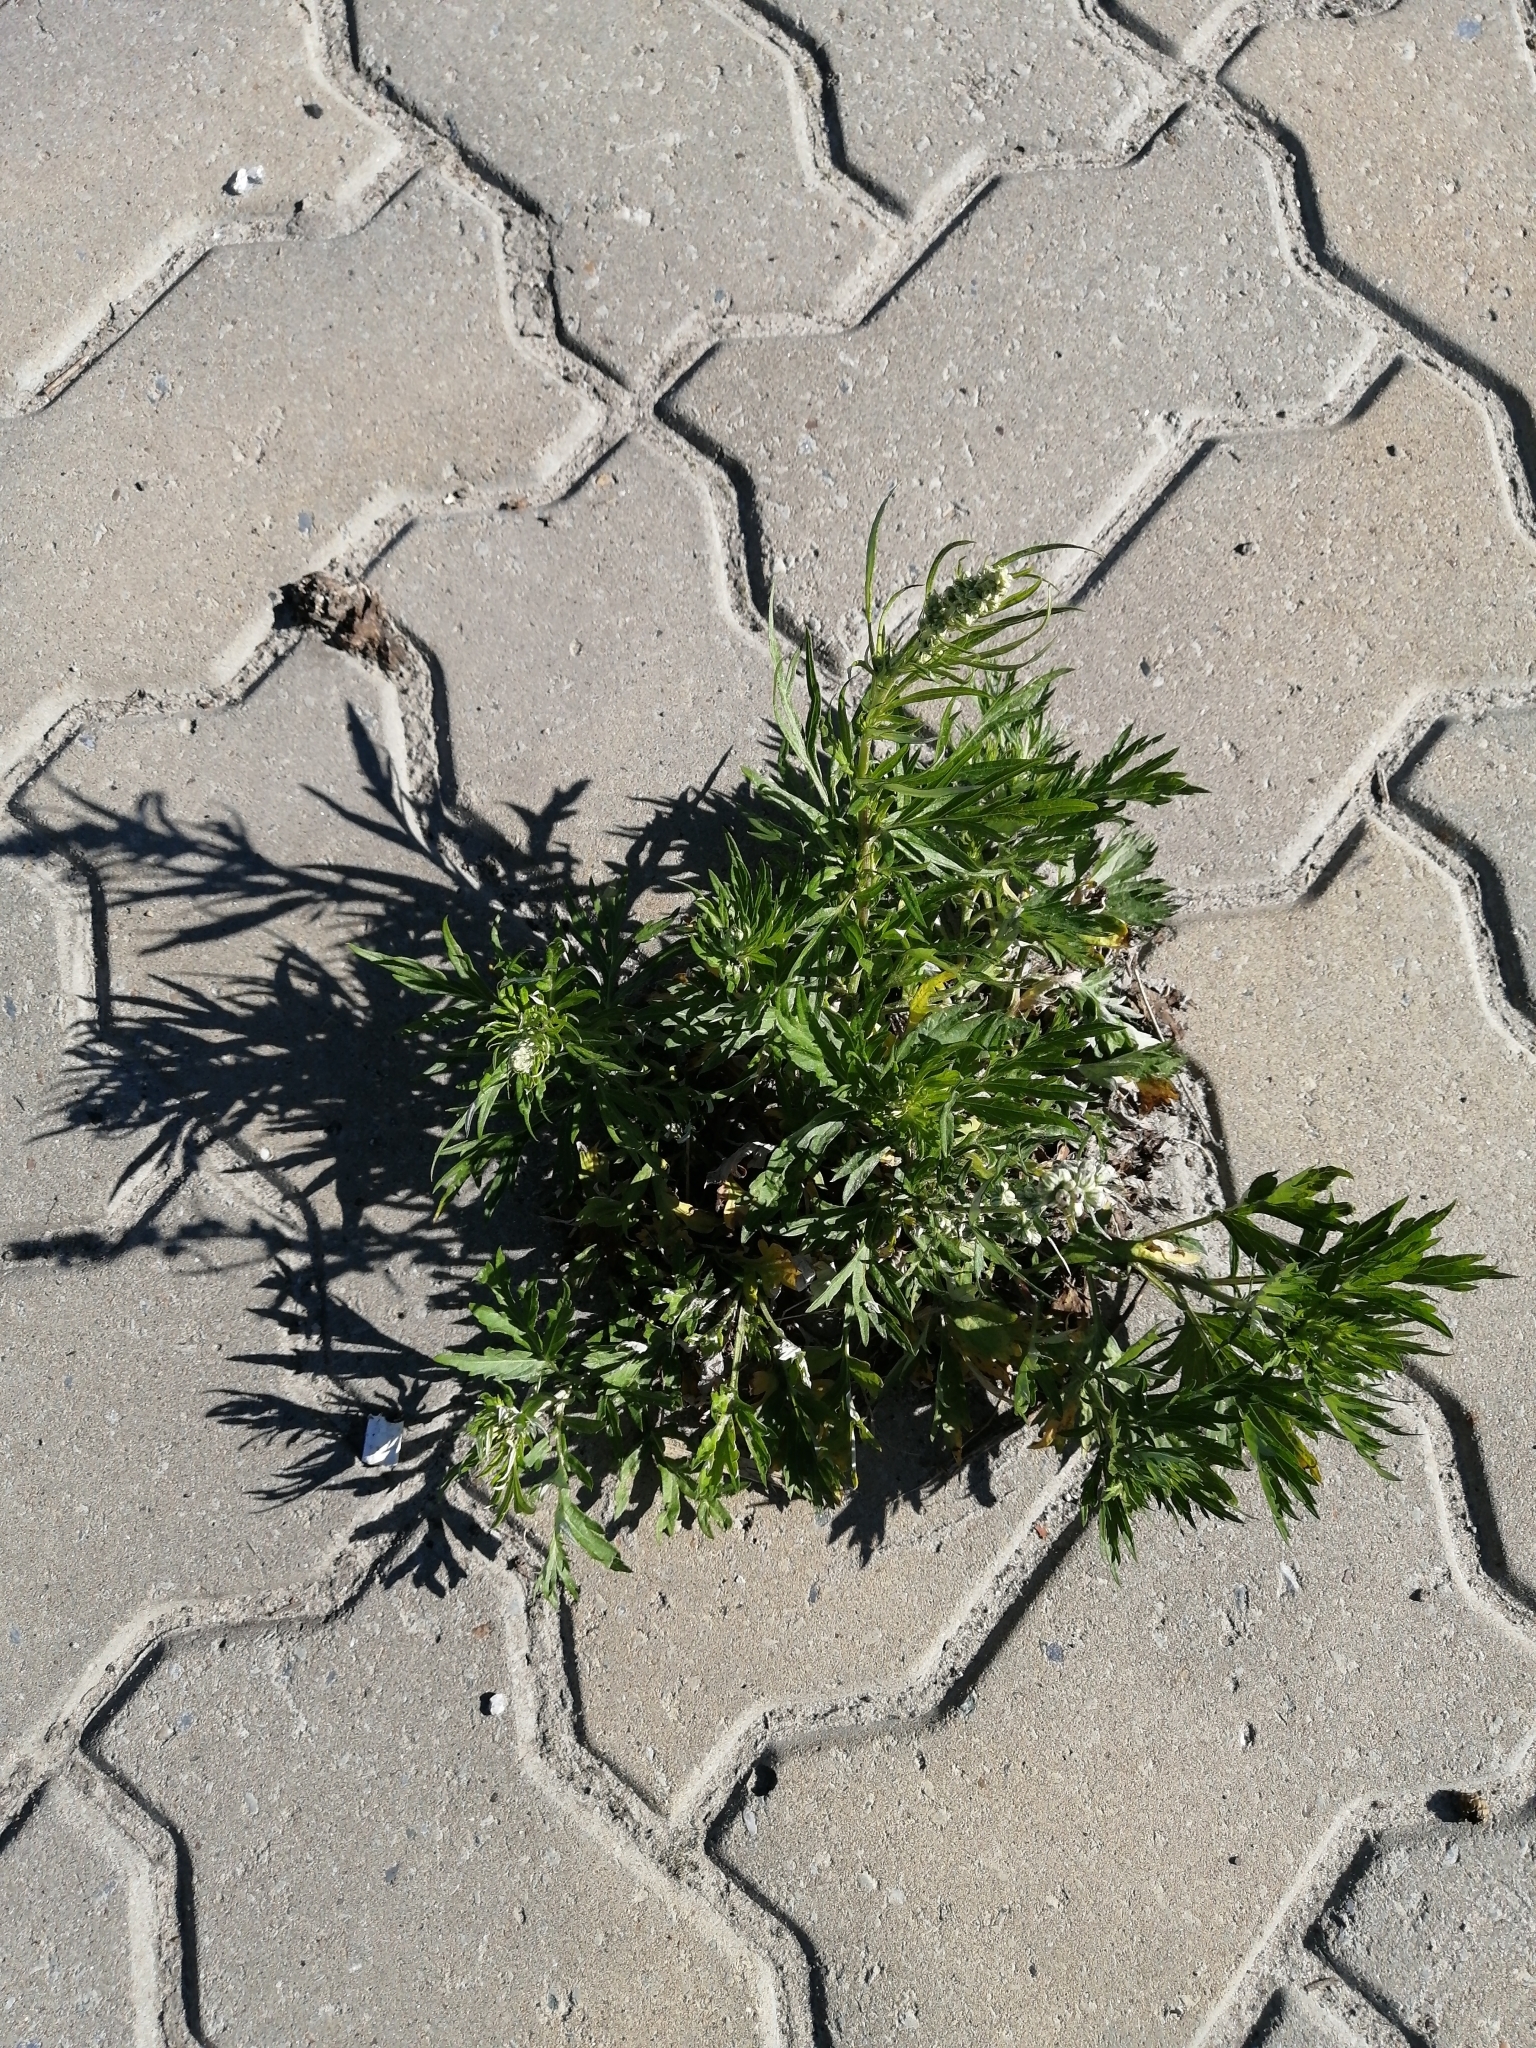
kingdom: Plantae
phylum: Tracheophyta
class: Magnoliopsida
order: Asterales
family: Asteraceae
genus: Artemisia
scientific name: Artemisia vulgaris
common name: Mugwort
